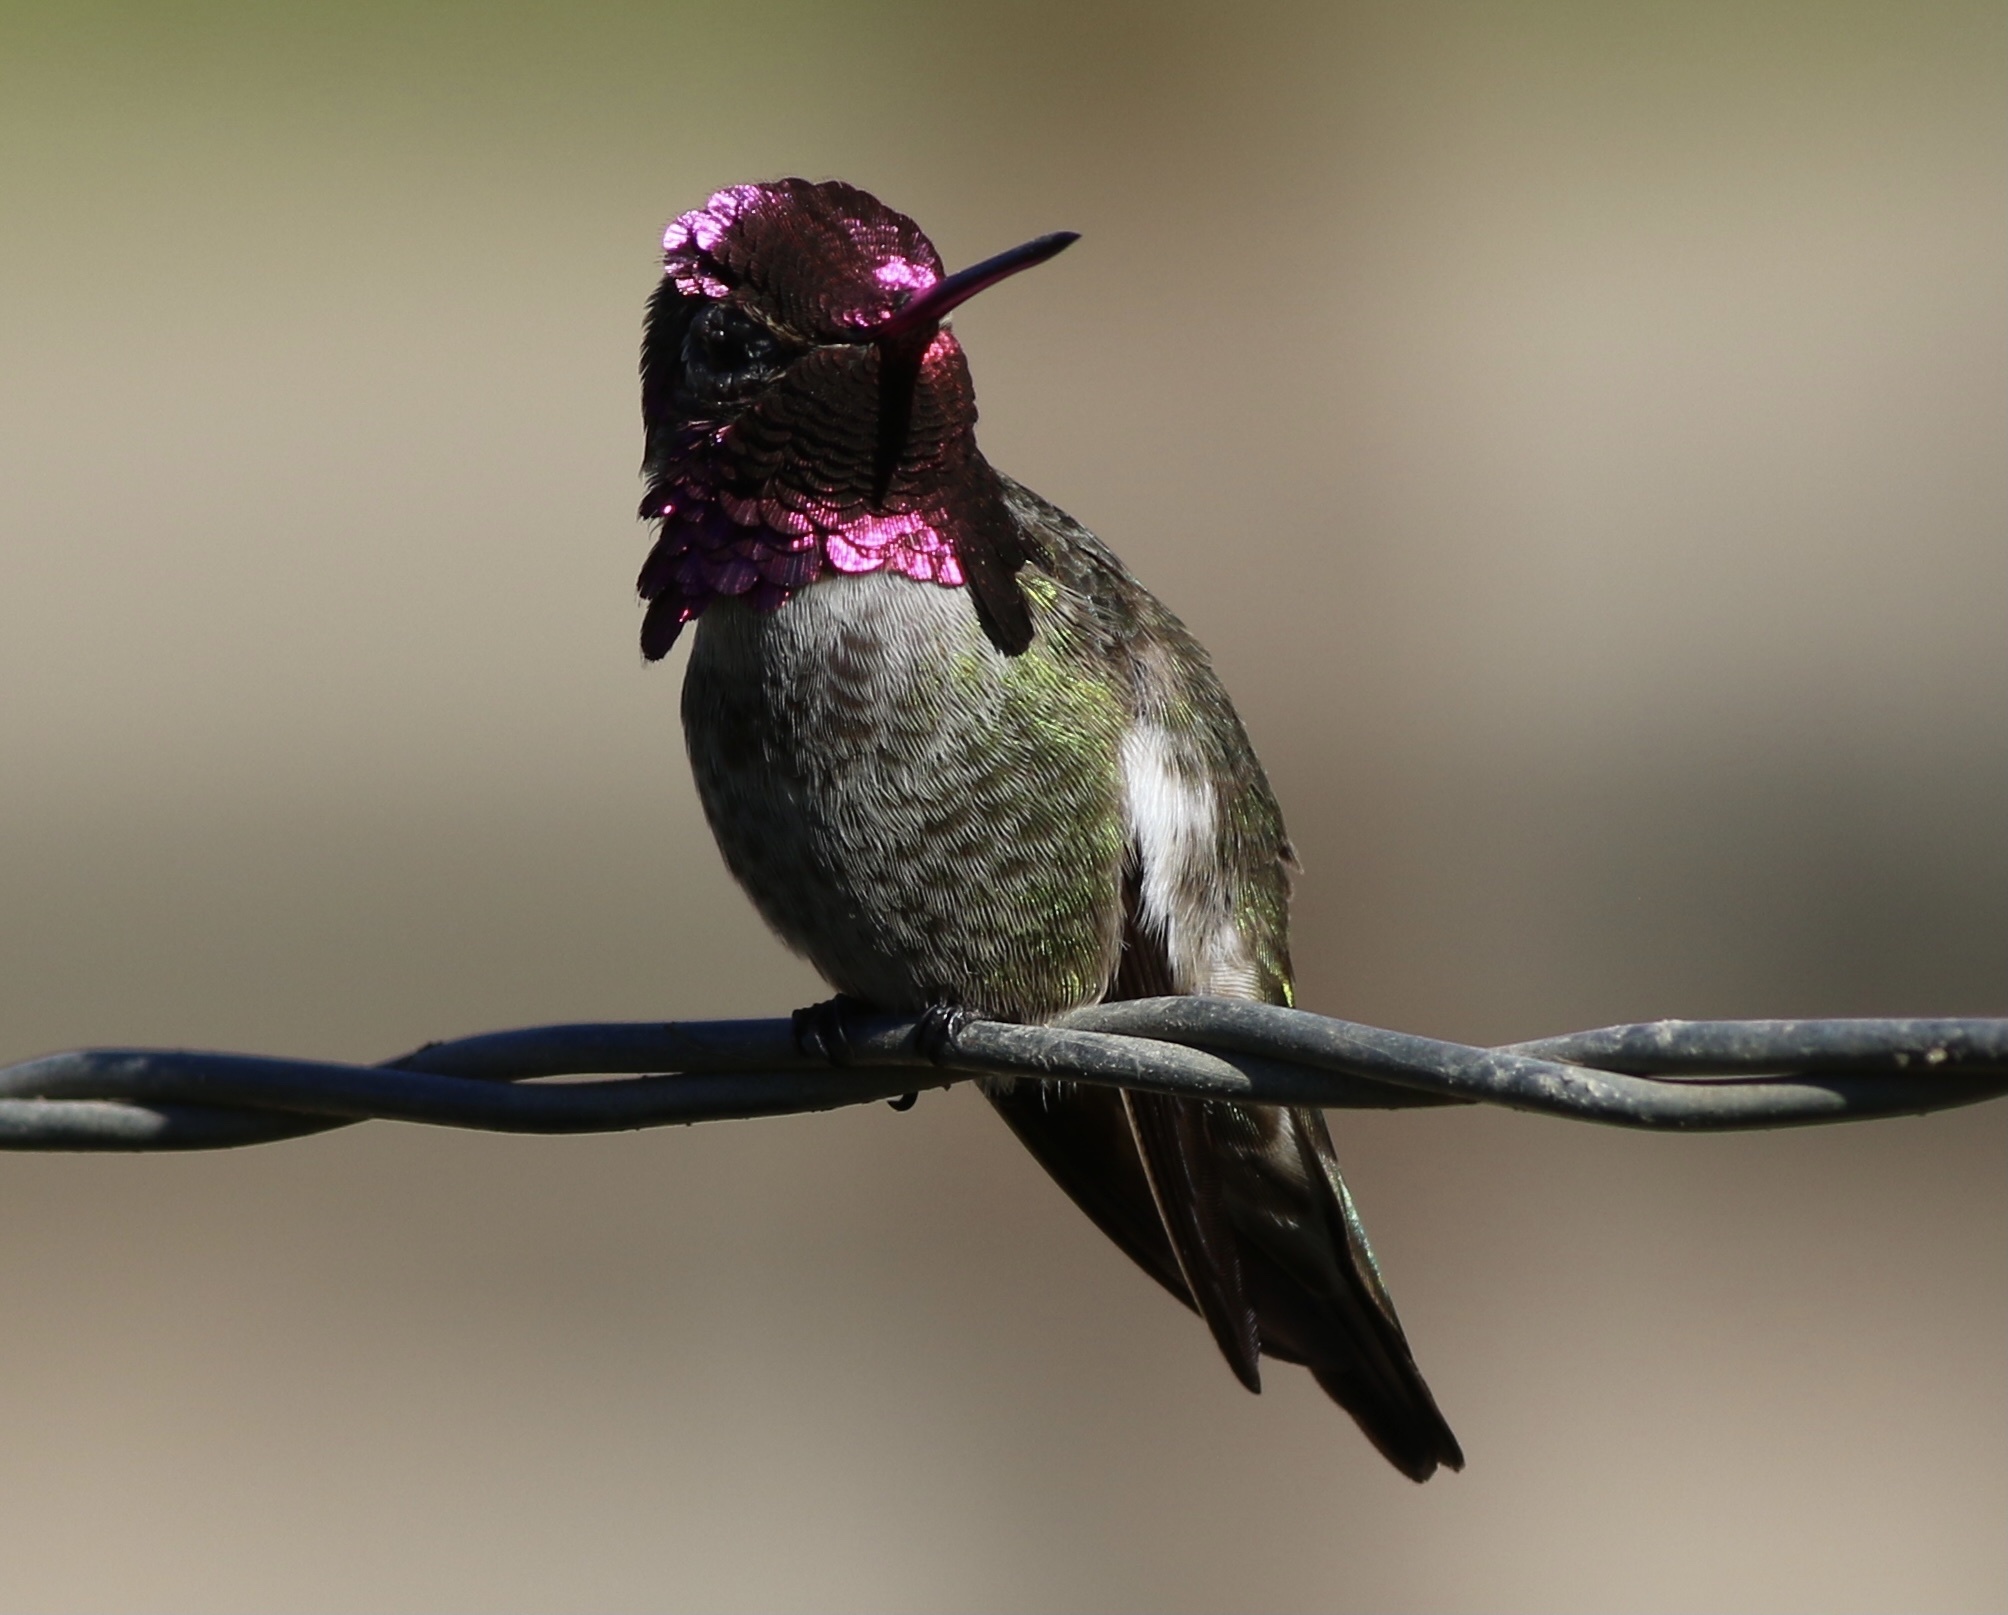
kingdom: Animalia
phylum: Chordata
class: Aves
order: Apodiformes
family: Trochilidae
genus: Calypte
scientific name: Calypte anna
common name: Anna's hummingbird
